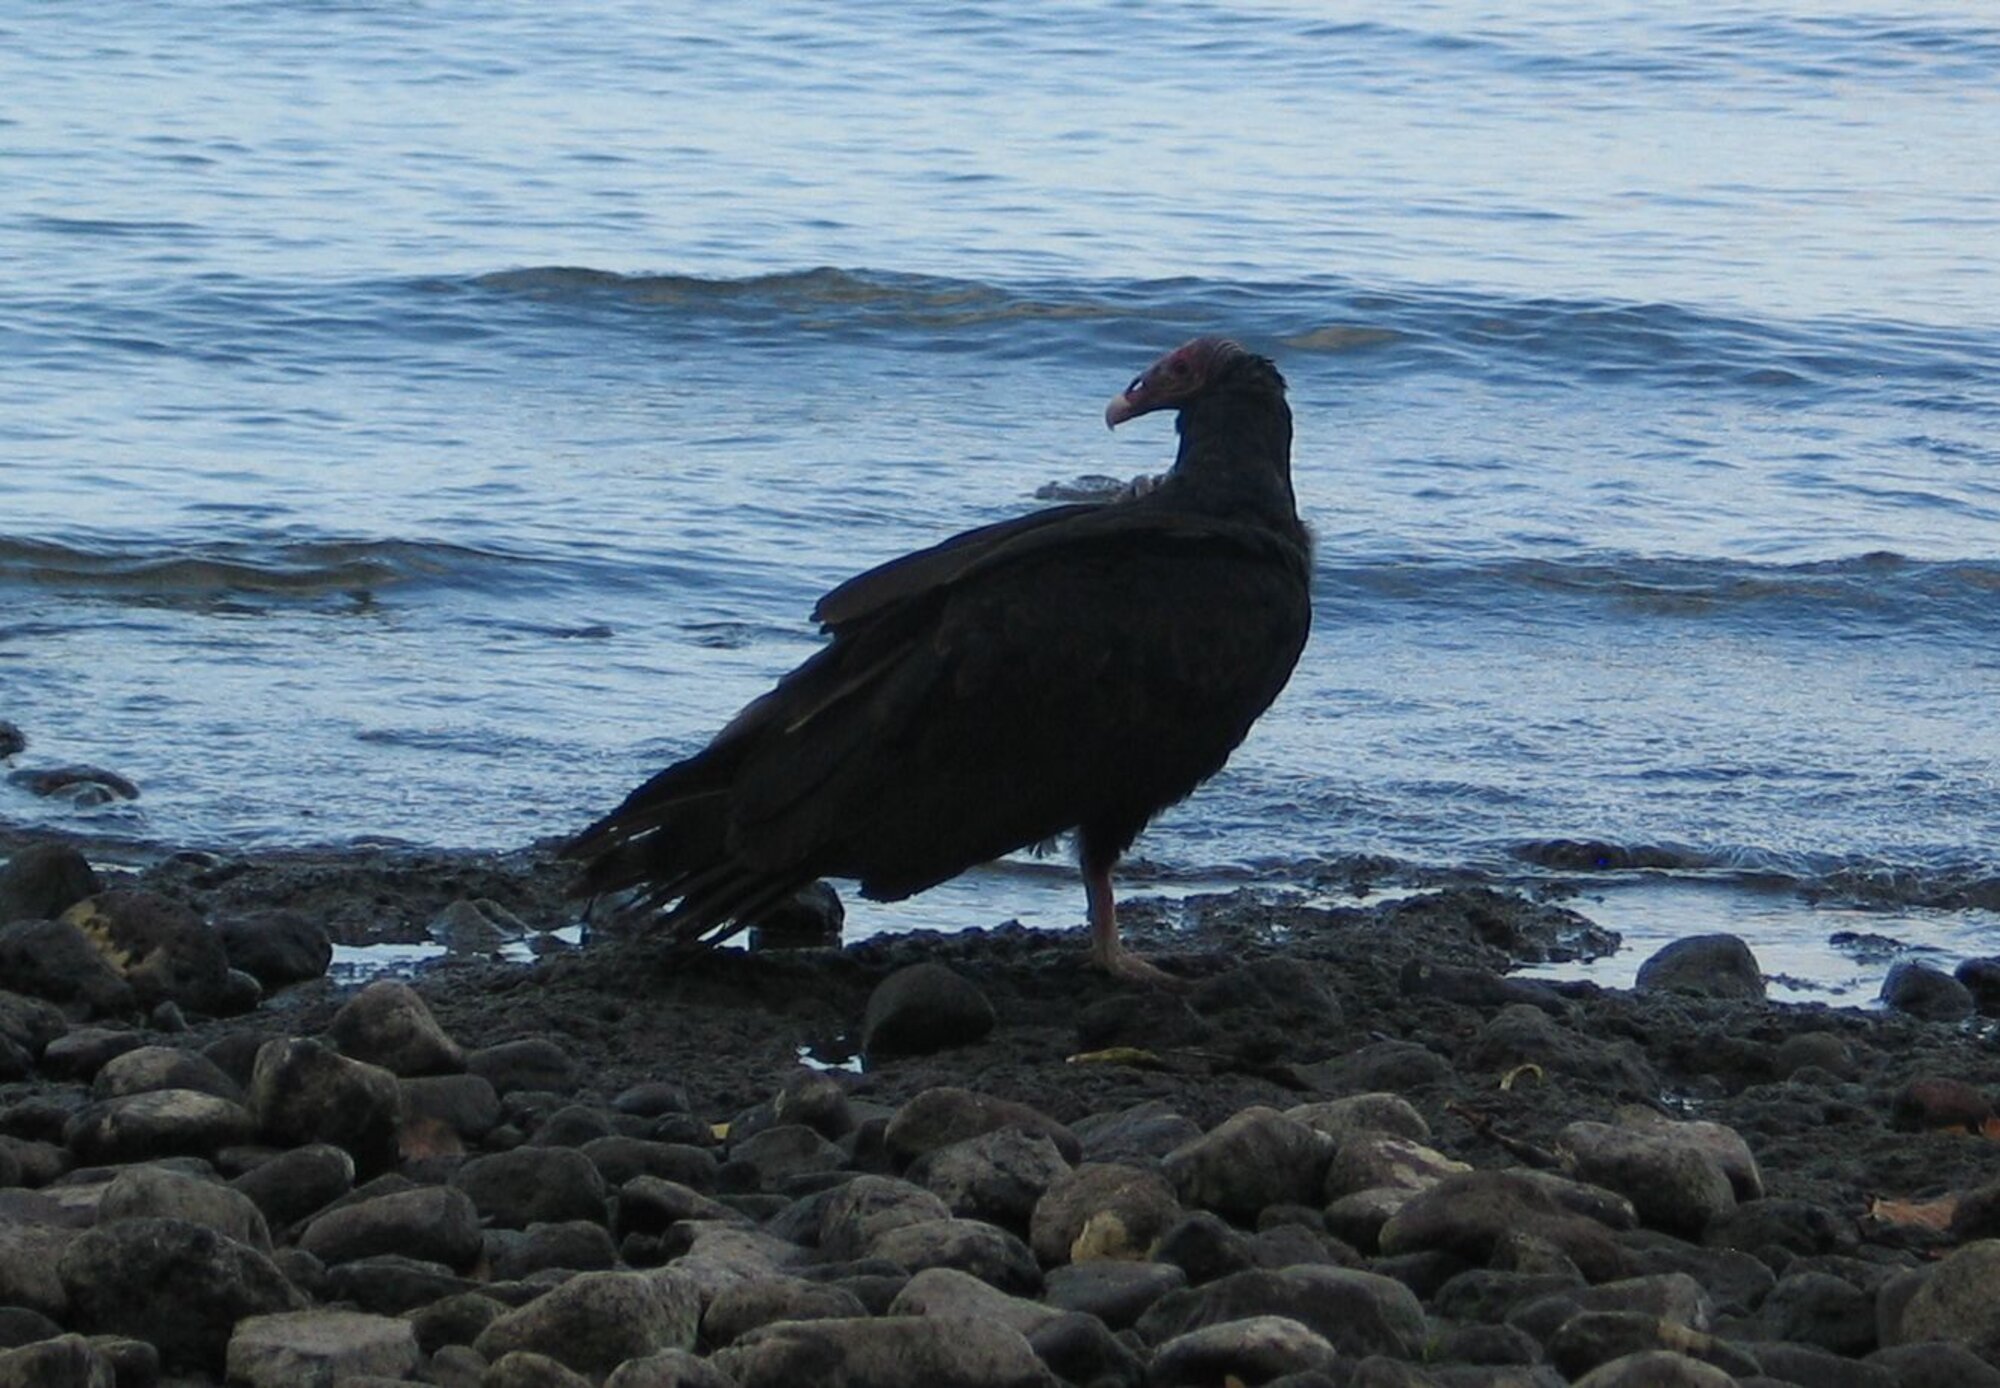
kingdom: Animalia
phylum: Chordata
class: Aves
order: Accipitriformes
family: Cathartidae
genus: Cathartes
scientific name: Cathartes aura
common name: Turkey vulture
